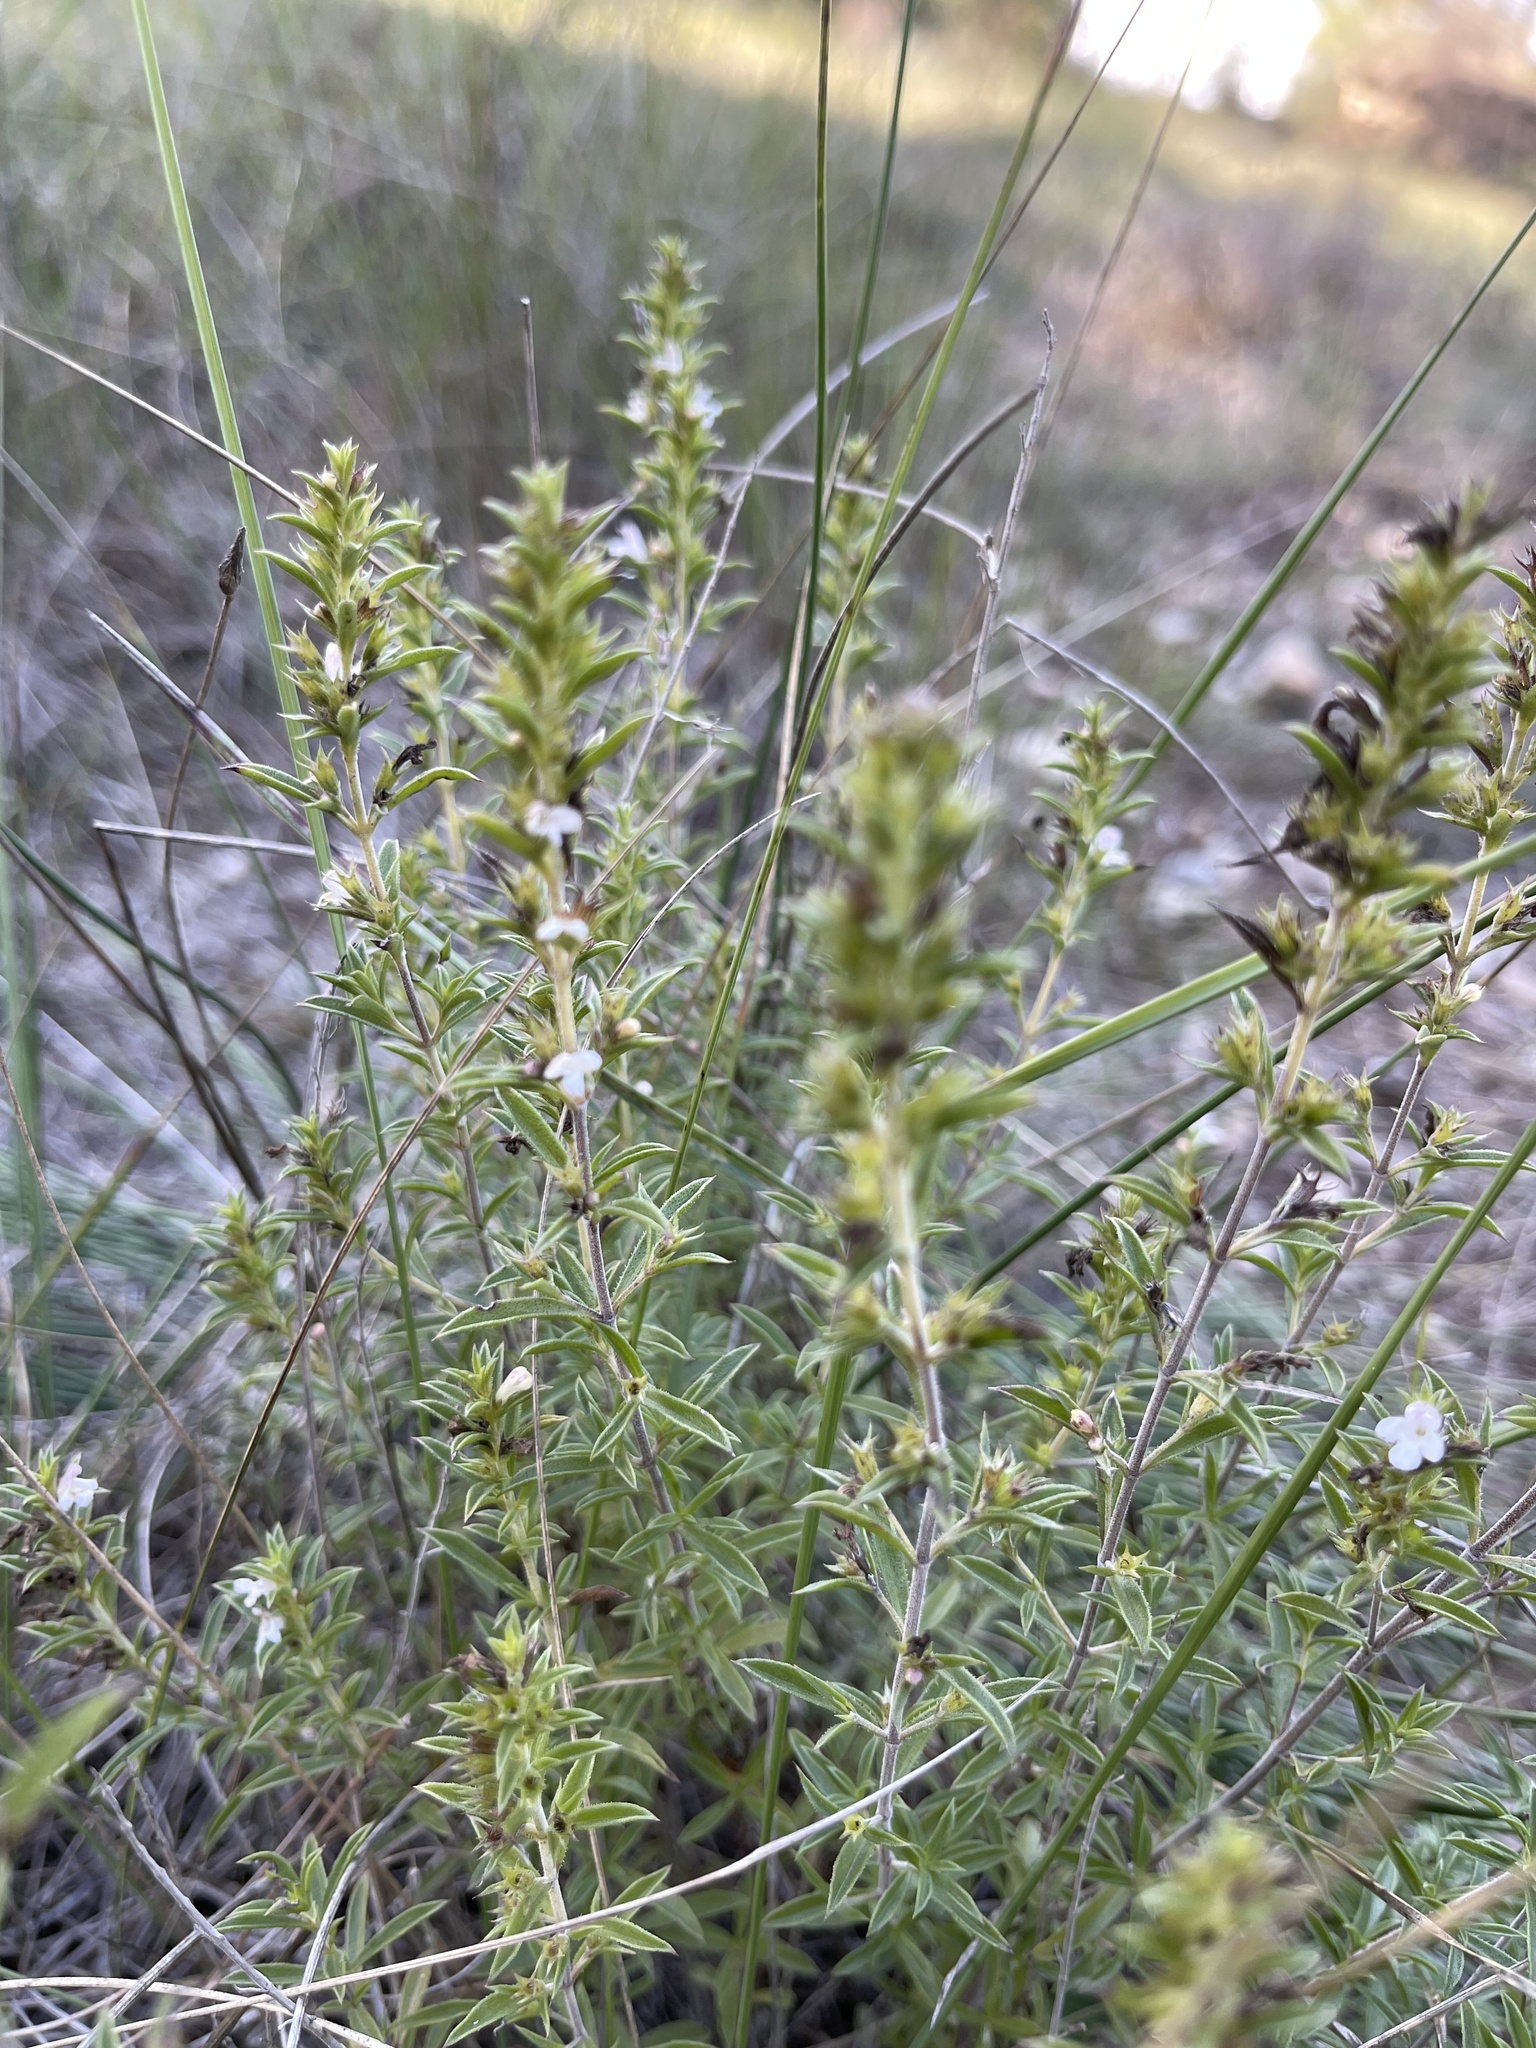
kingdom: Plantae
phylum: Tracheophyta
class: Magnoliopsida
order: Lamiales
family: Lamiaceae
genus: Satureja
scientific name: Satureja montana
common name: Winter savory
